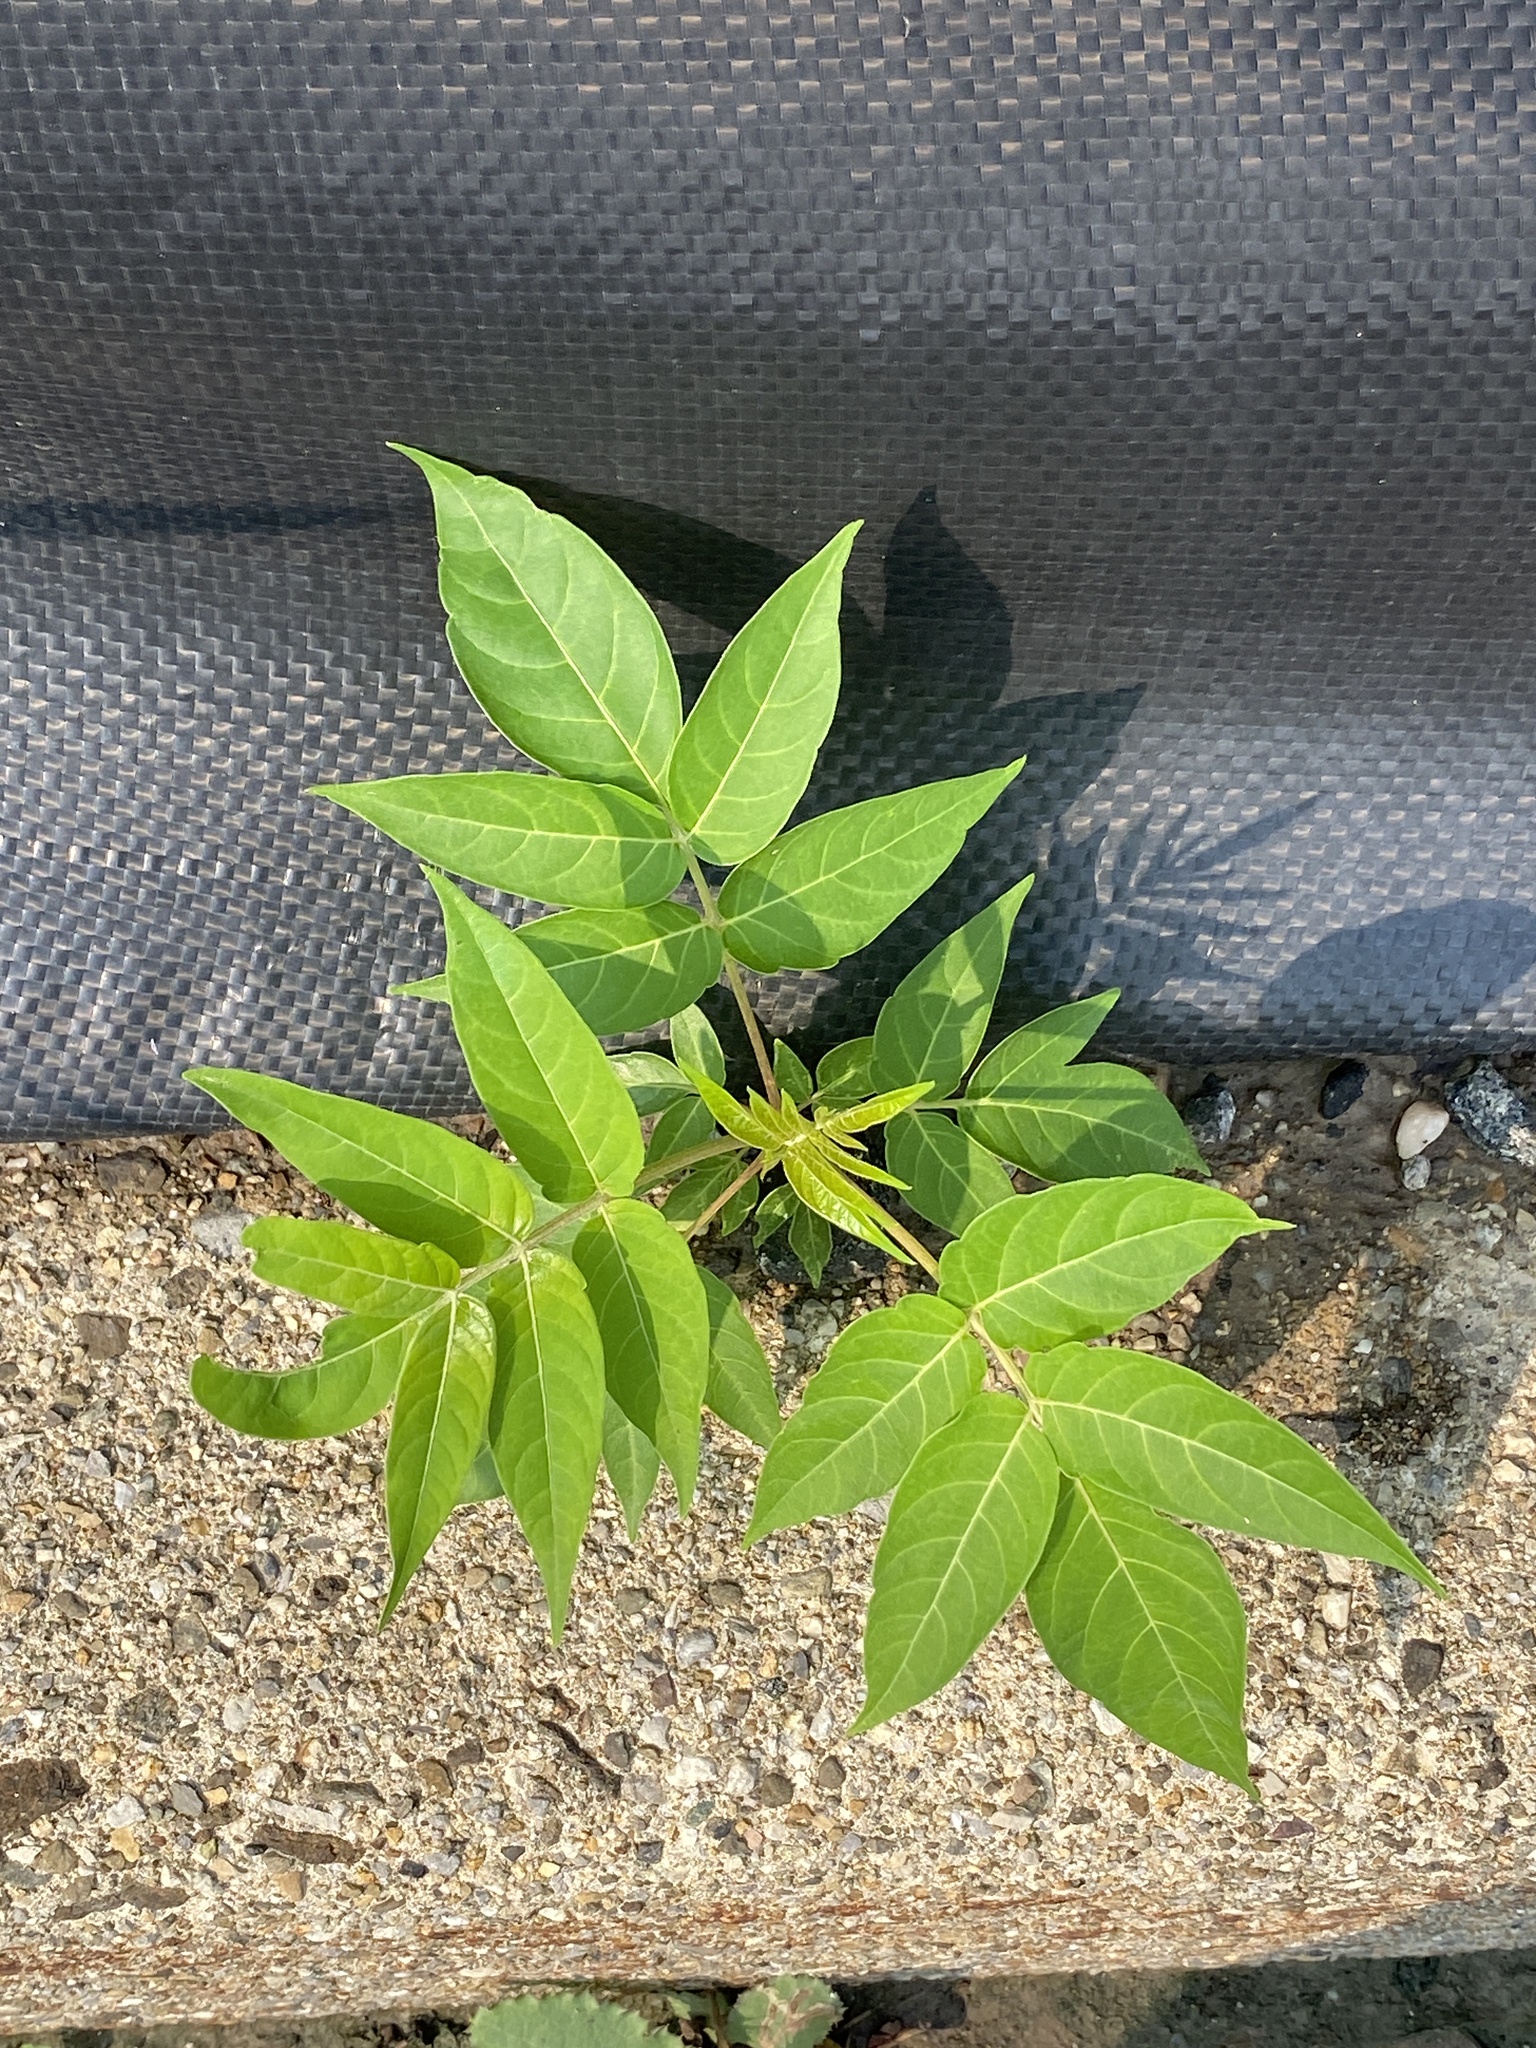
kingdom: Plantae
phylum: Tracheophyta
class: Magnoliopsida
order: Sapindales
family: Simaroubaceae
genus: Ailanthus
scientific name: Ailanthus altissima
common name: Tree-of-heaven
